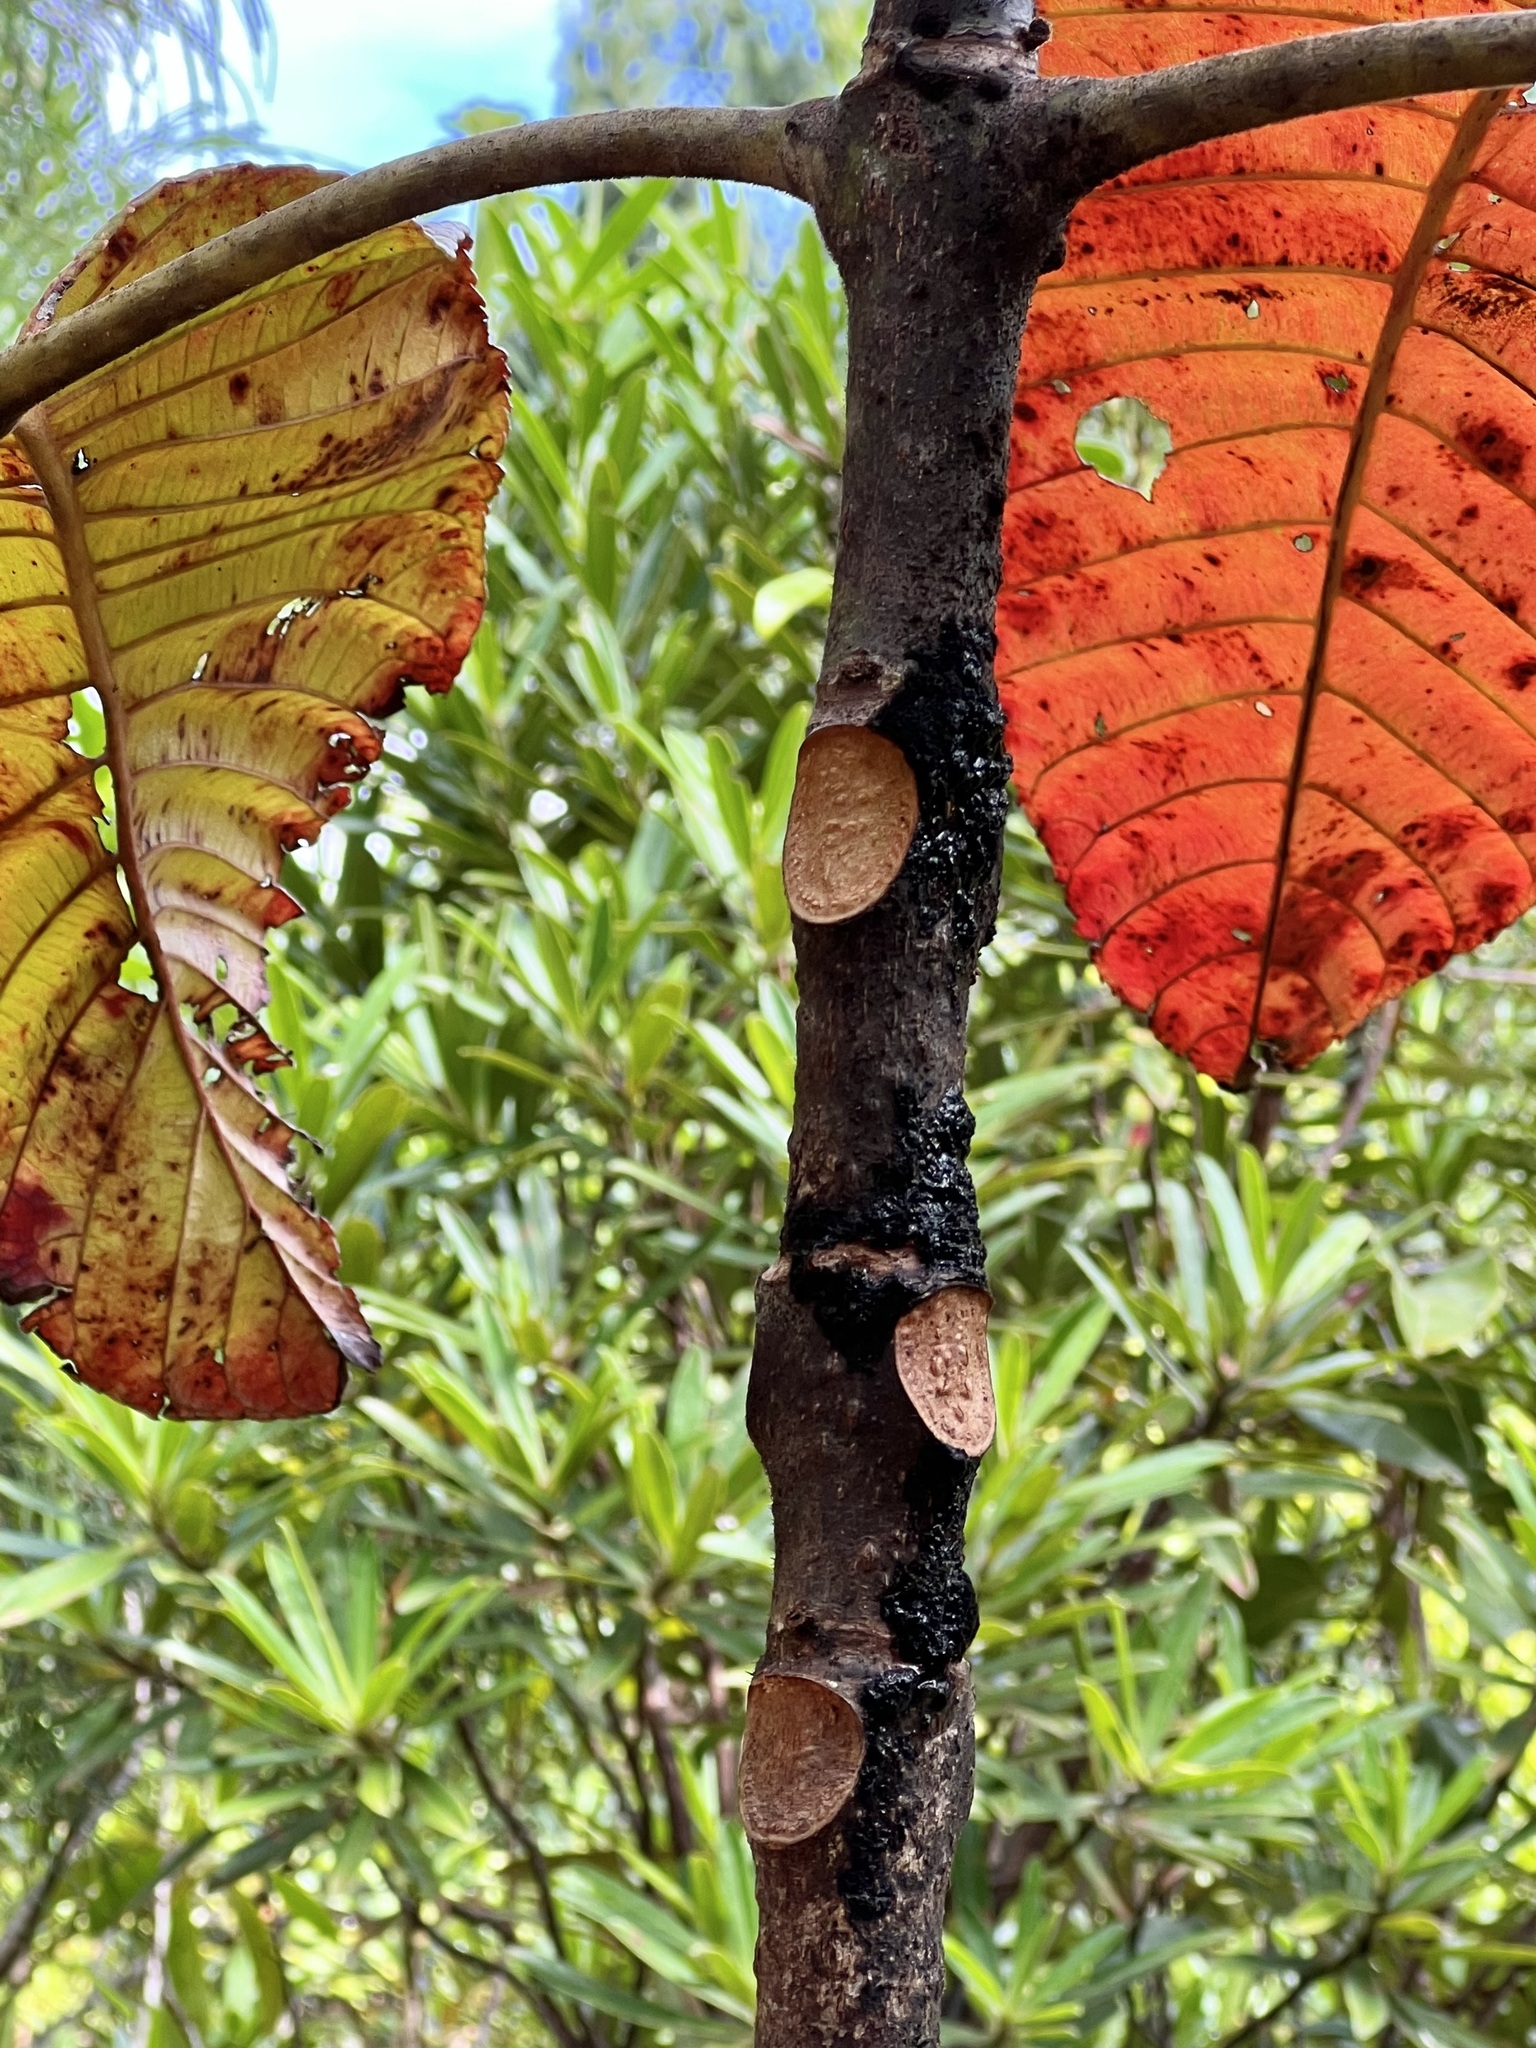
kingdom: Plantae
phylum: Tracheophyta
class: Magnoliopsida
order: Oxalidales
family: Cunoniaceae
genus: Geissois
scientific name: Geissois hirsuta
